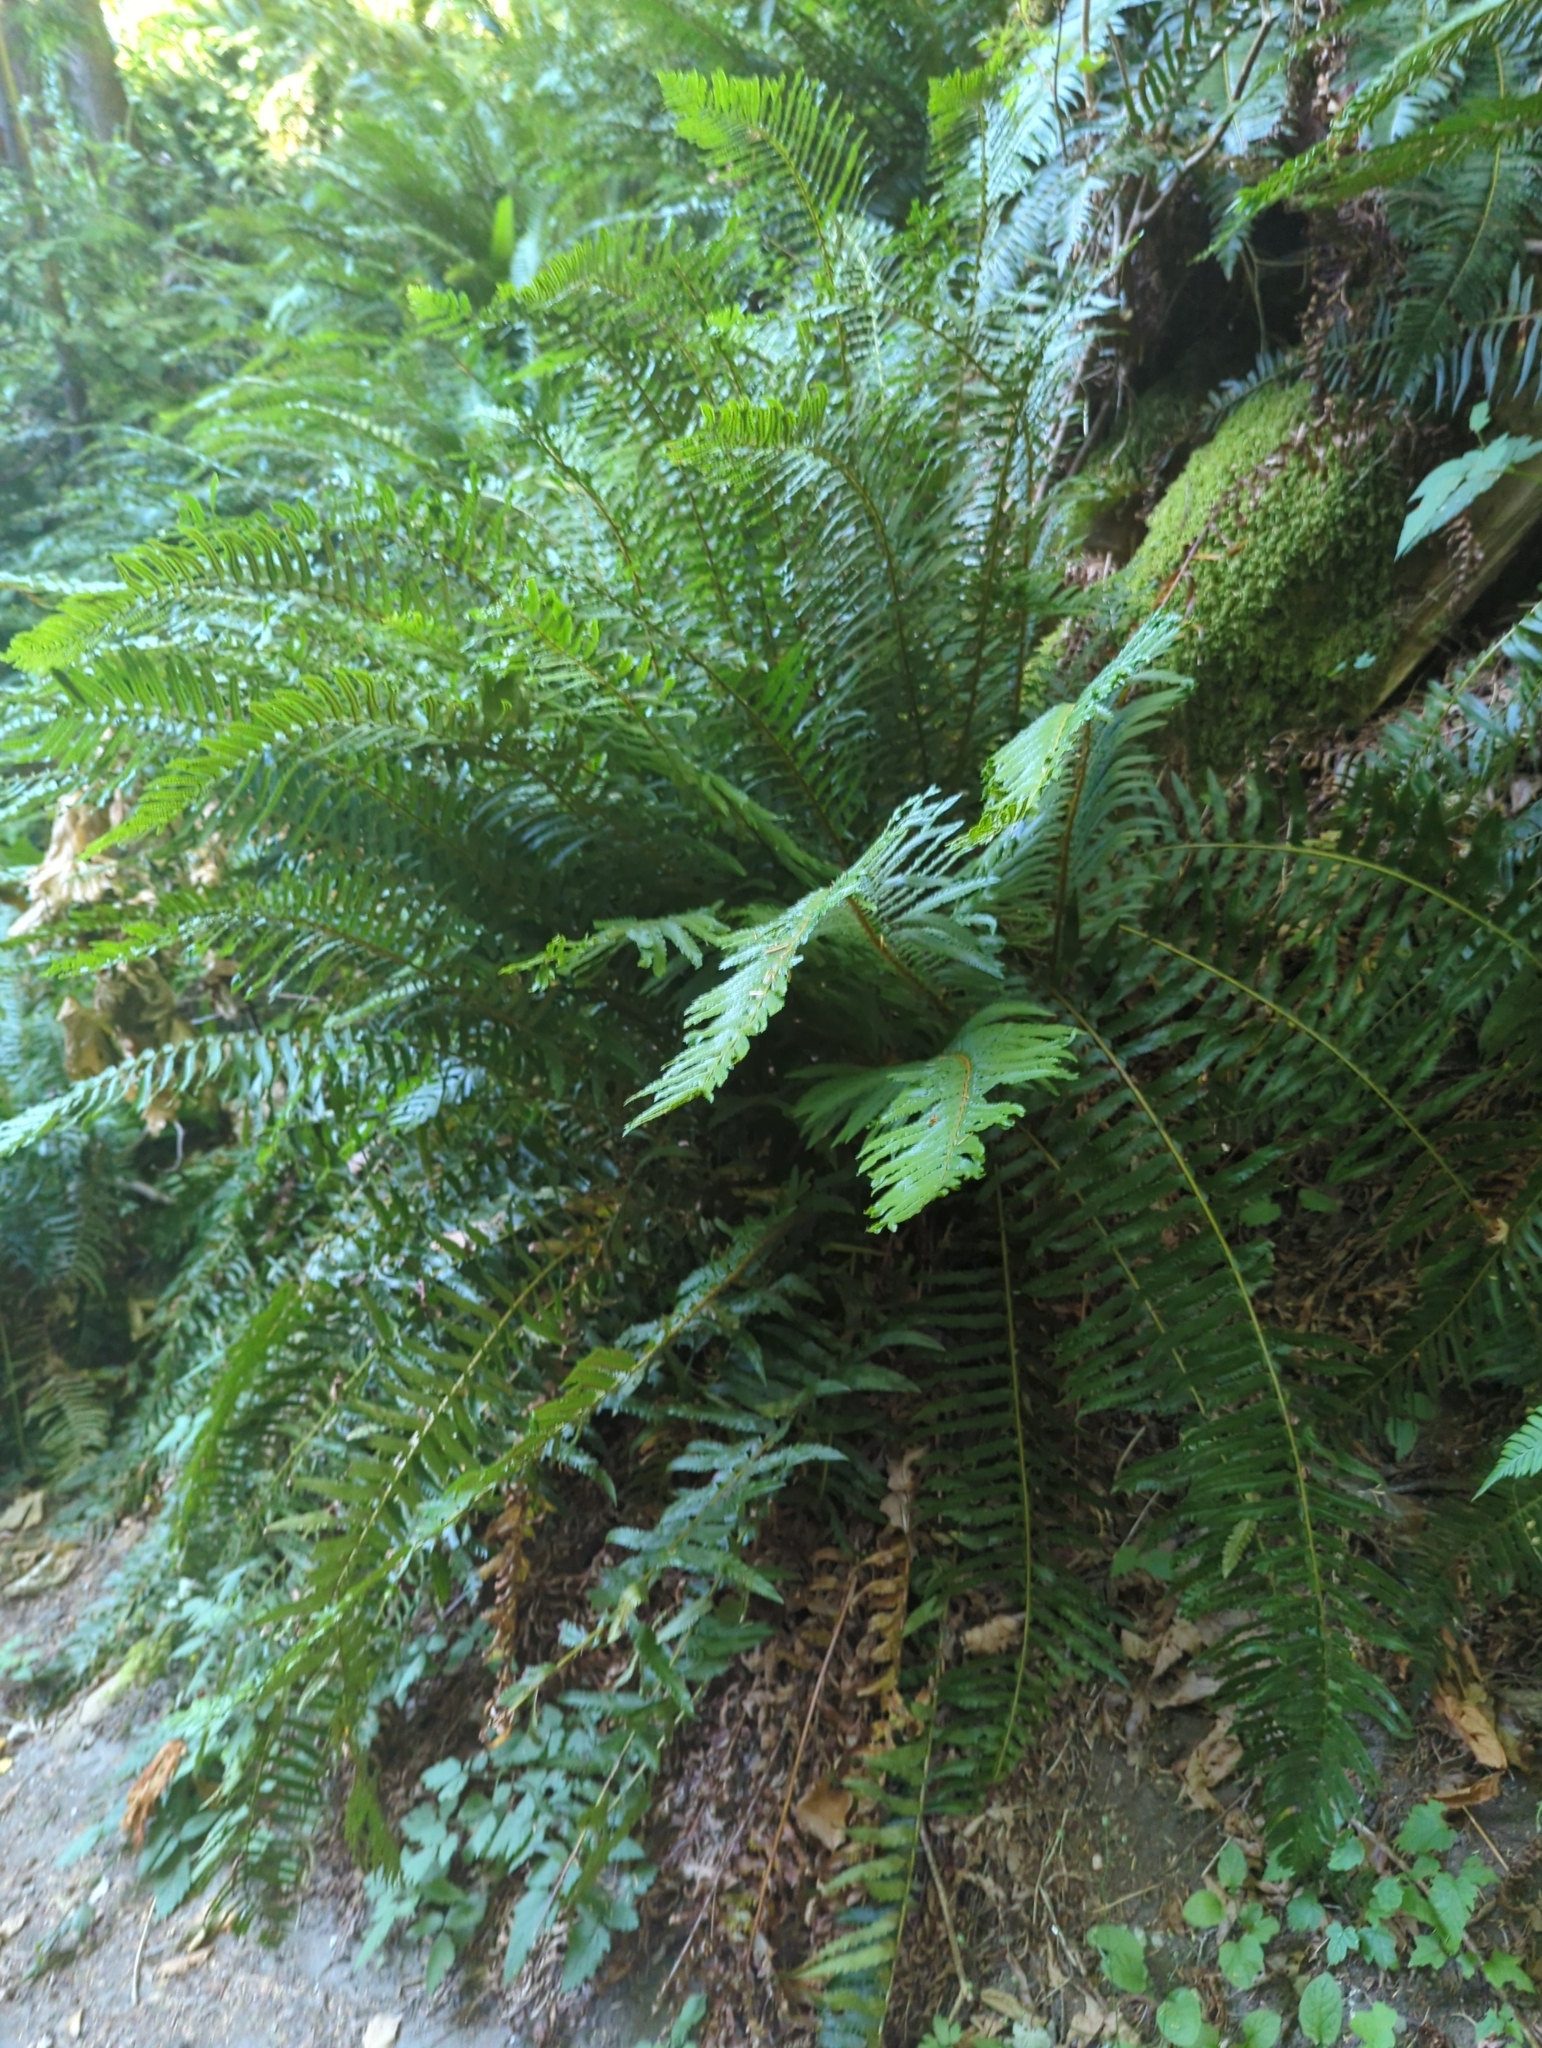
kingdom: Plantae
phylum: Tracheophyta
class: Polypodiopsida
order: Polypodiales
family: Dryopteridaceae
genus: Polystichum
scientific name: Polystichum munitum
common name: Western sword-fern
